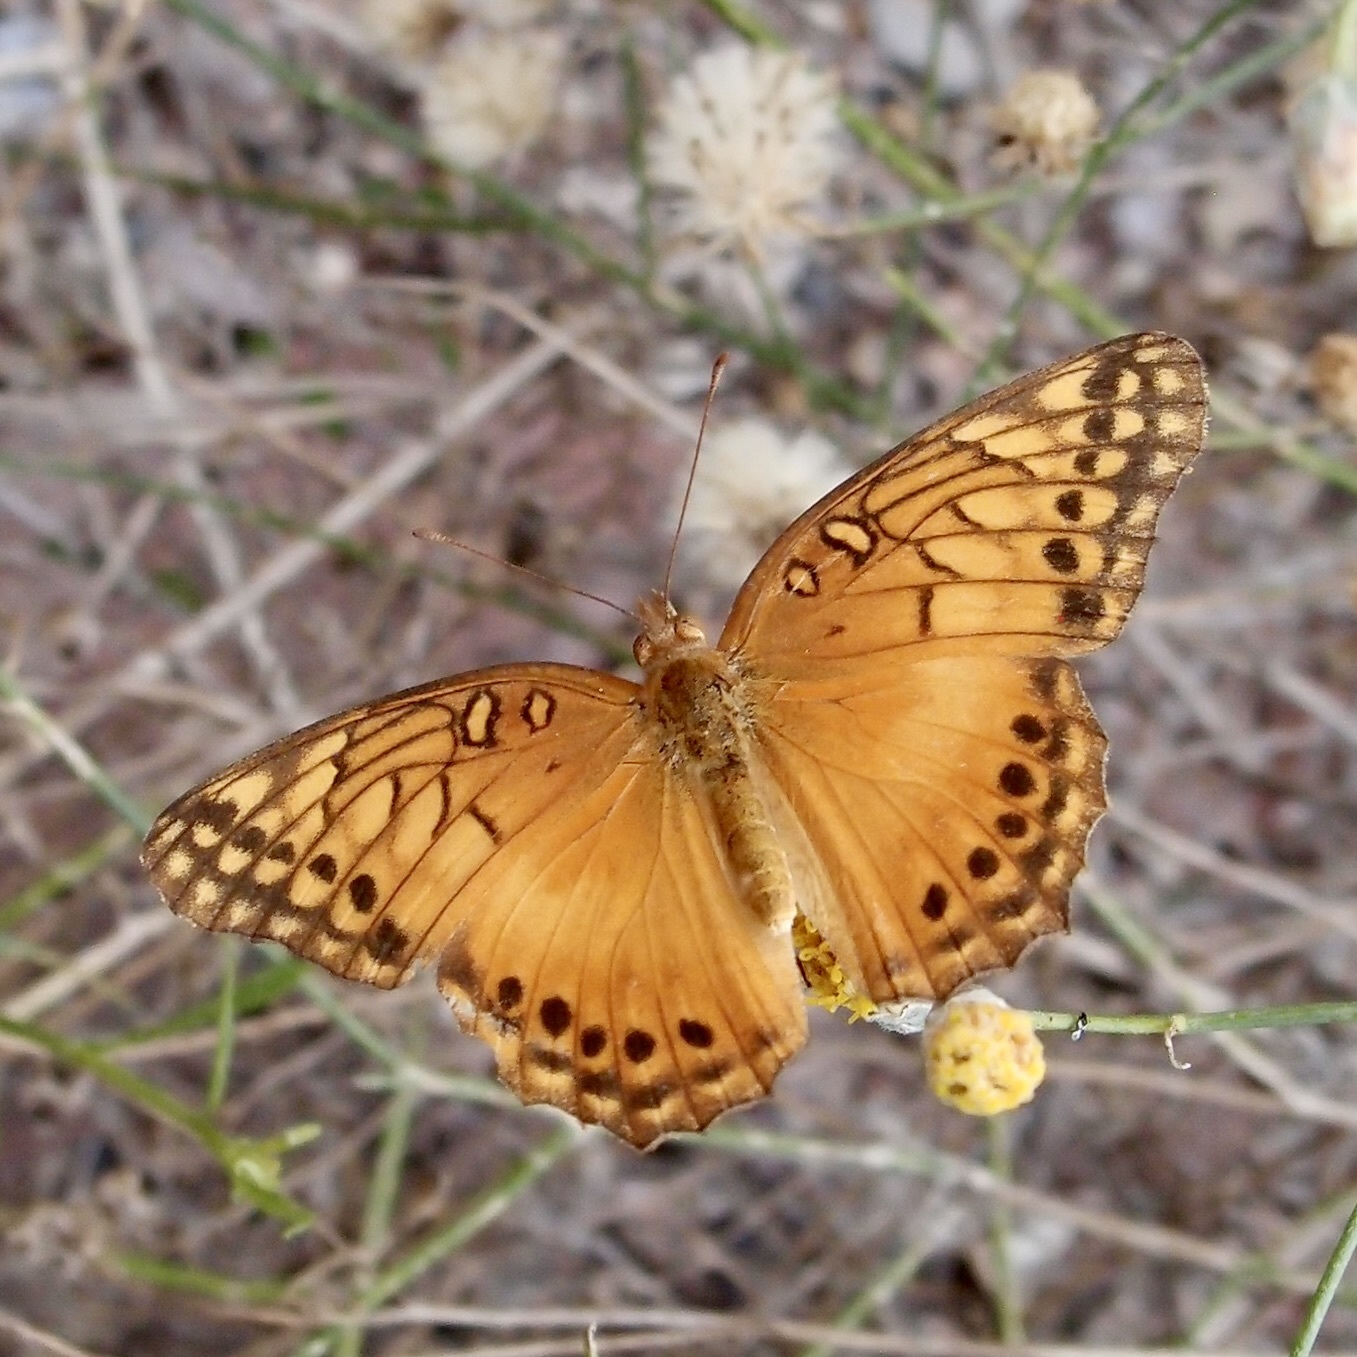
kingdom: Animalia
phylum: Arthropoda
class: Insecta
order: Lepidoptera
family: Nymphalidae
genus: Euptoieta
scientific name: Euptoieta hegesia
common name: Mexican fritillary
